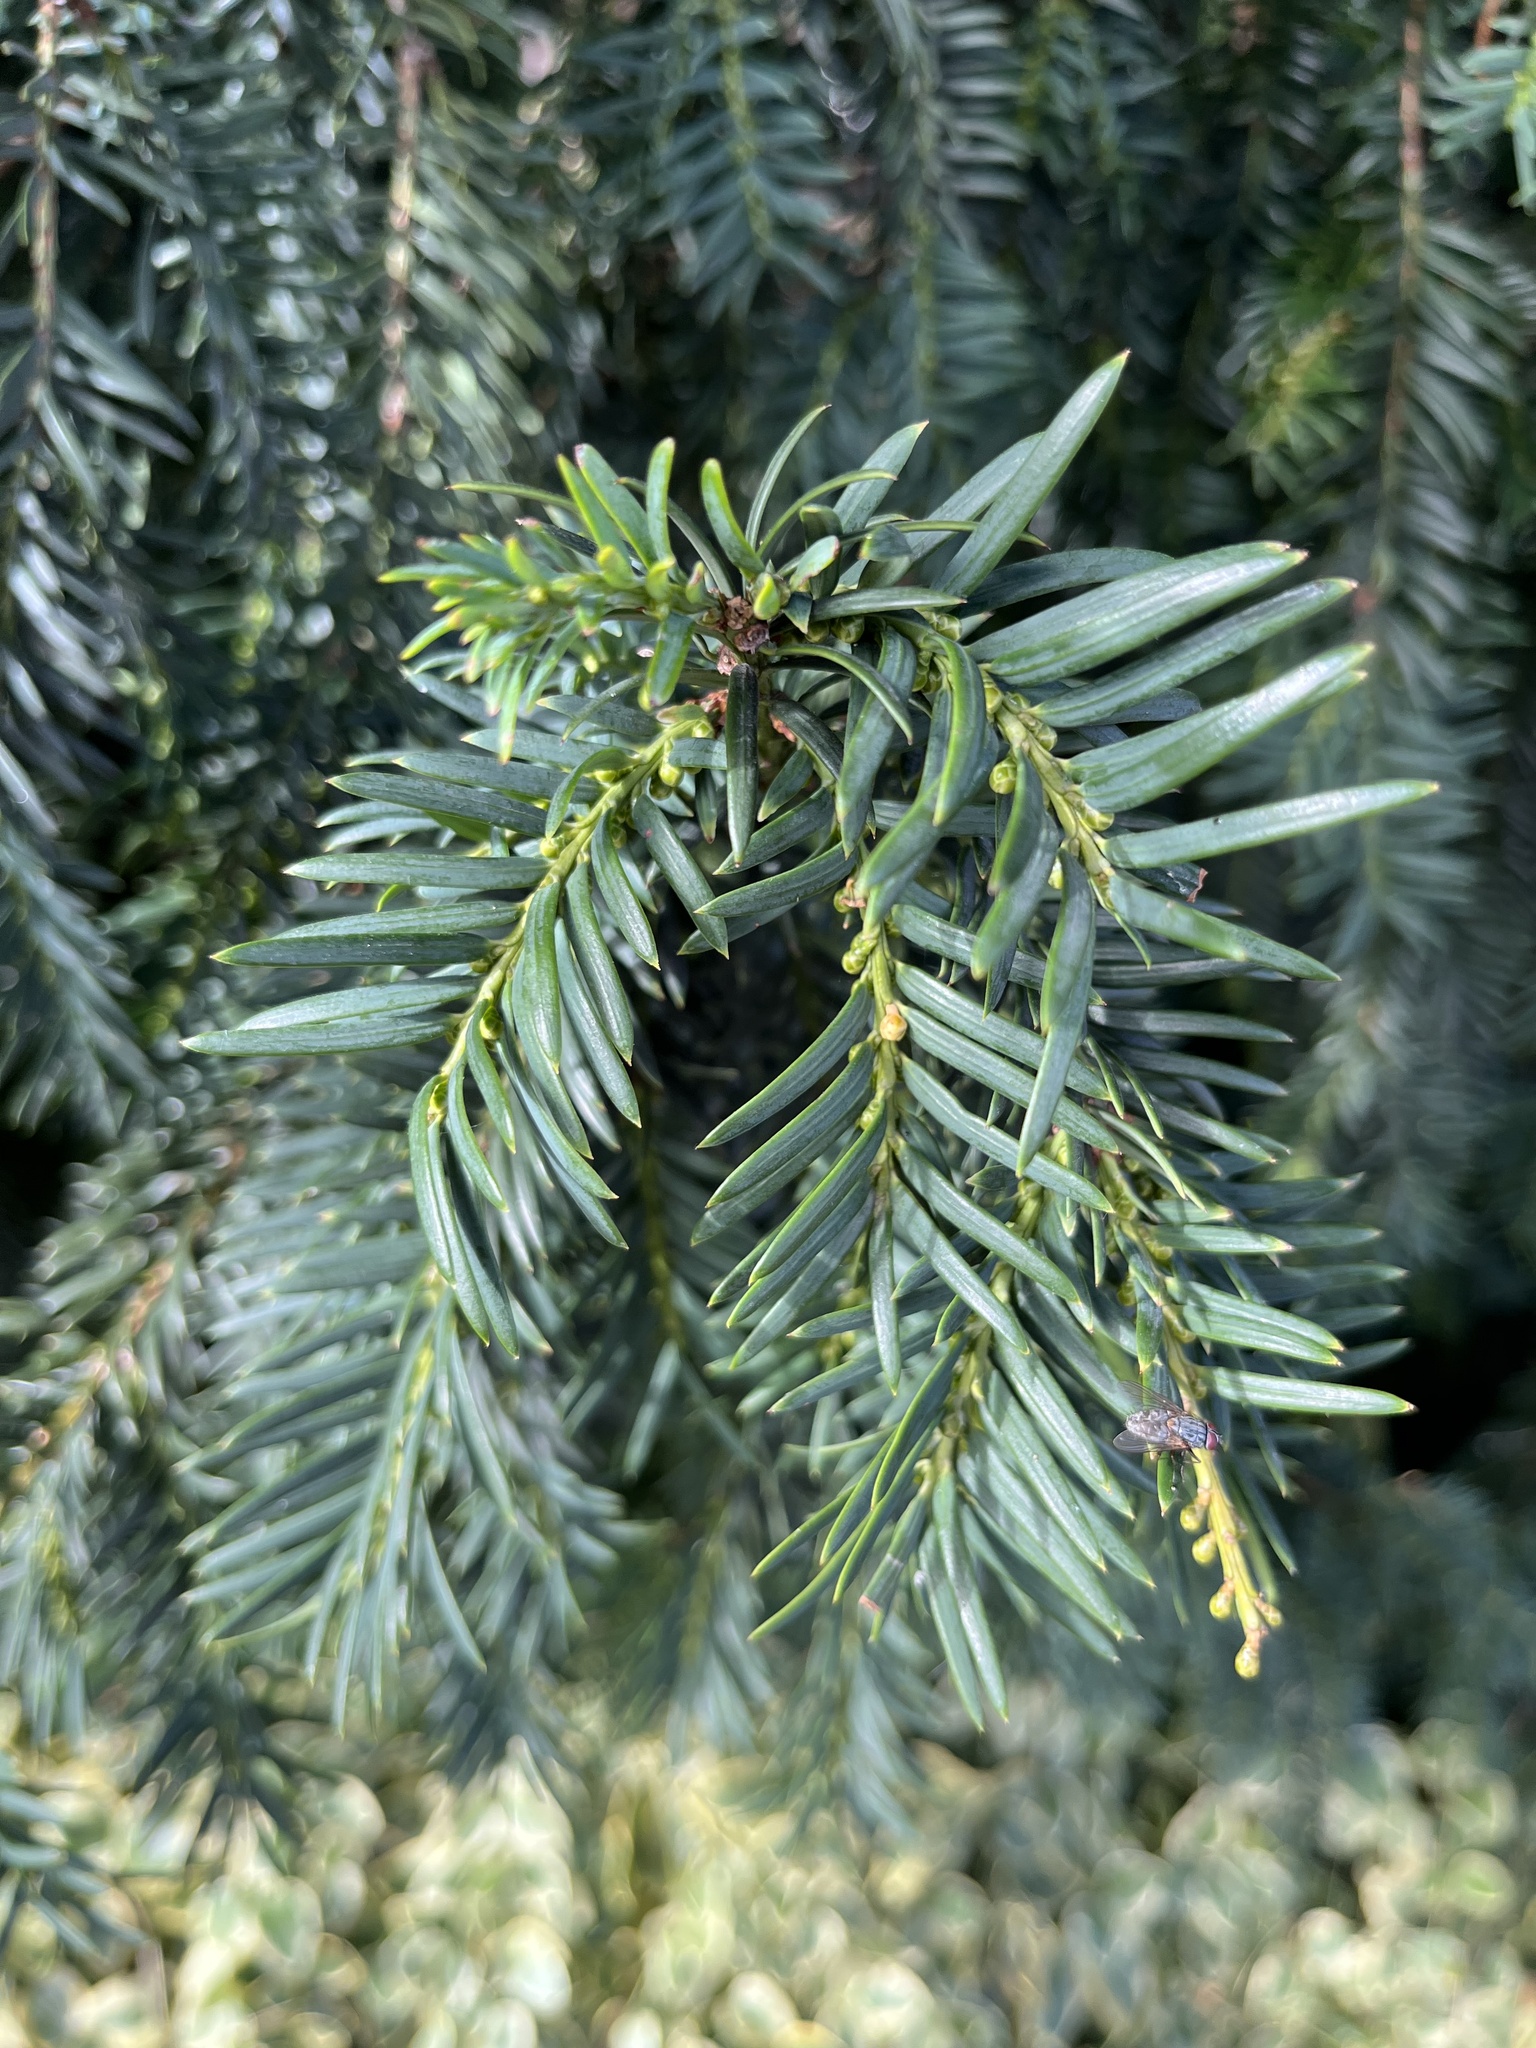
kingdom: Plantae
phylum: Tracheophyta
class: Pinopsida
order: Pinales
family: Taxaceae
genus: Taxus
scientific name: Taxus baccata
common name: Yew
